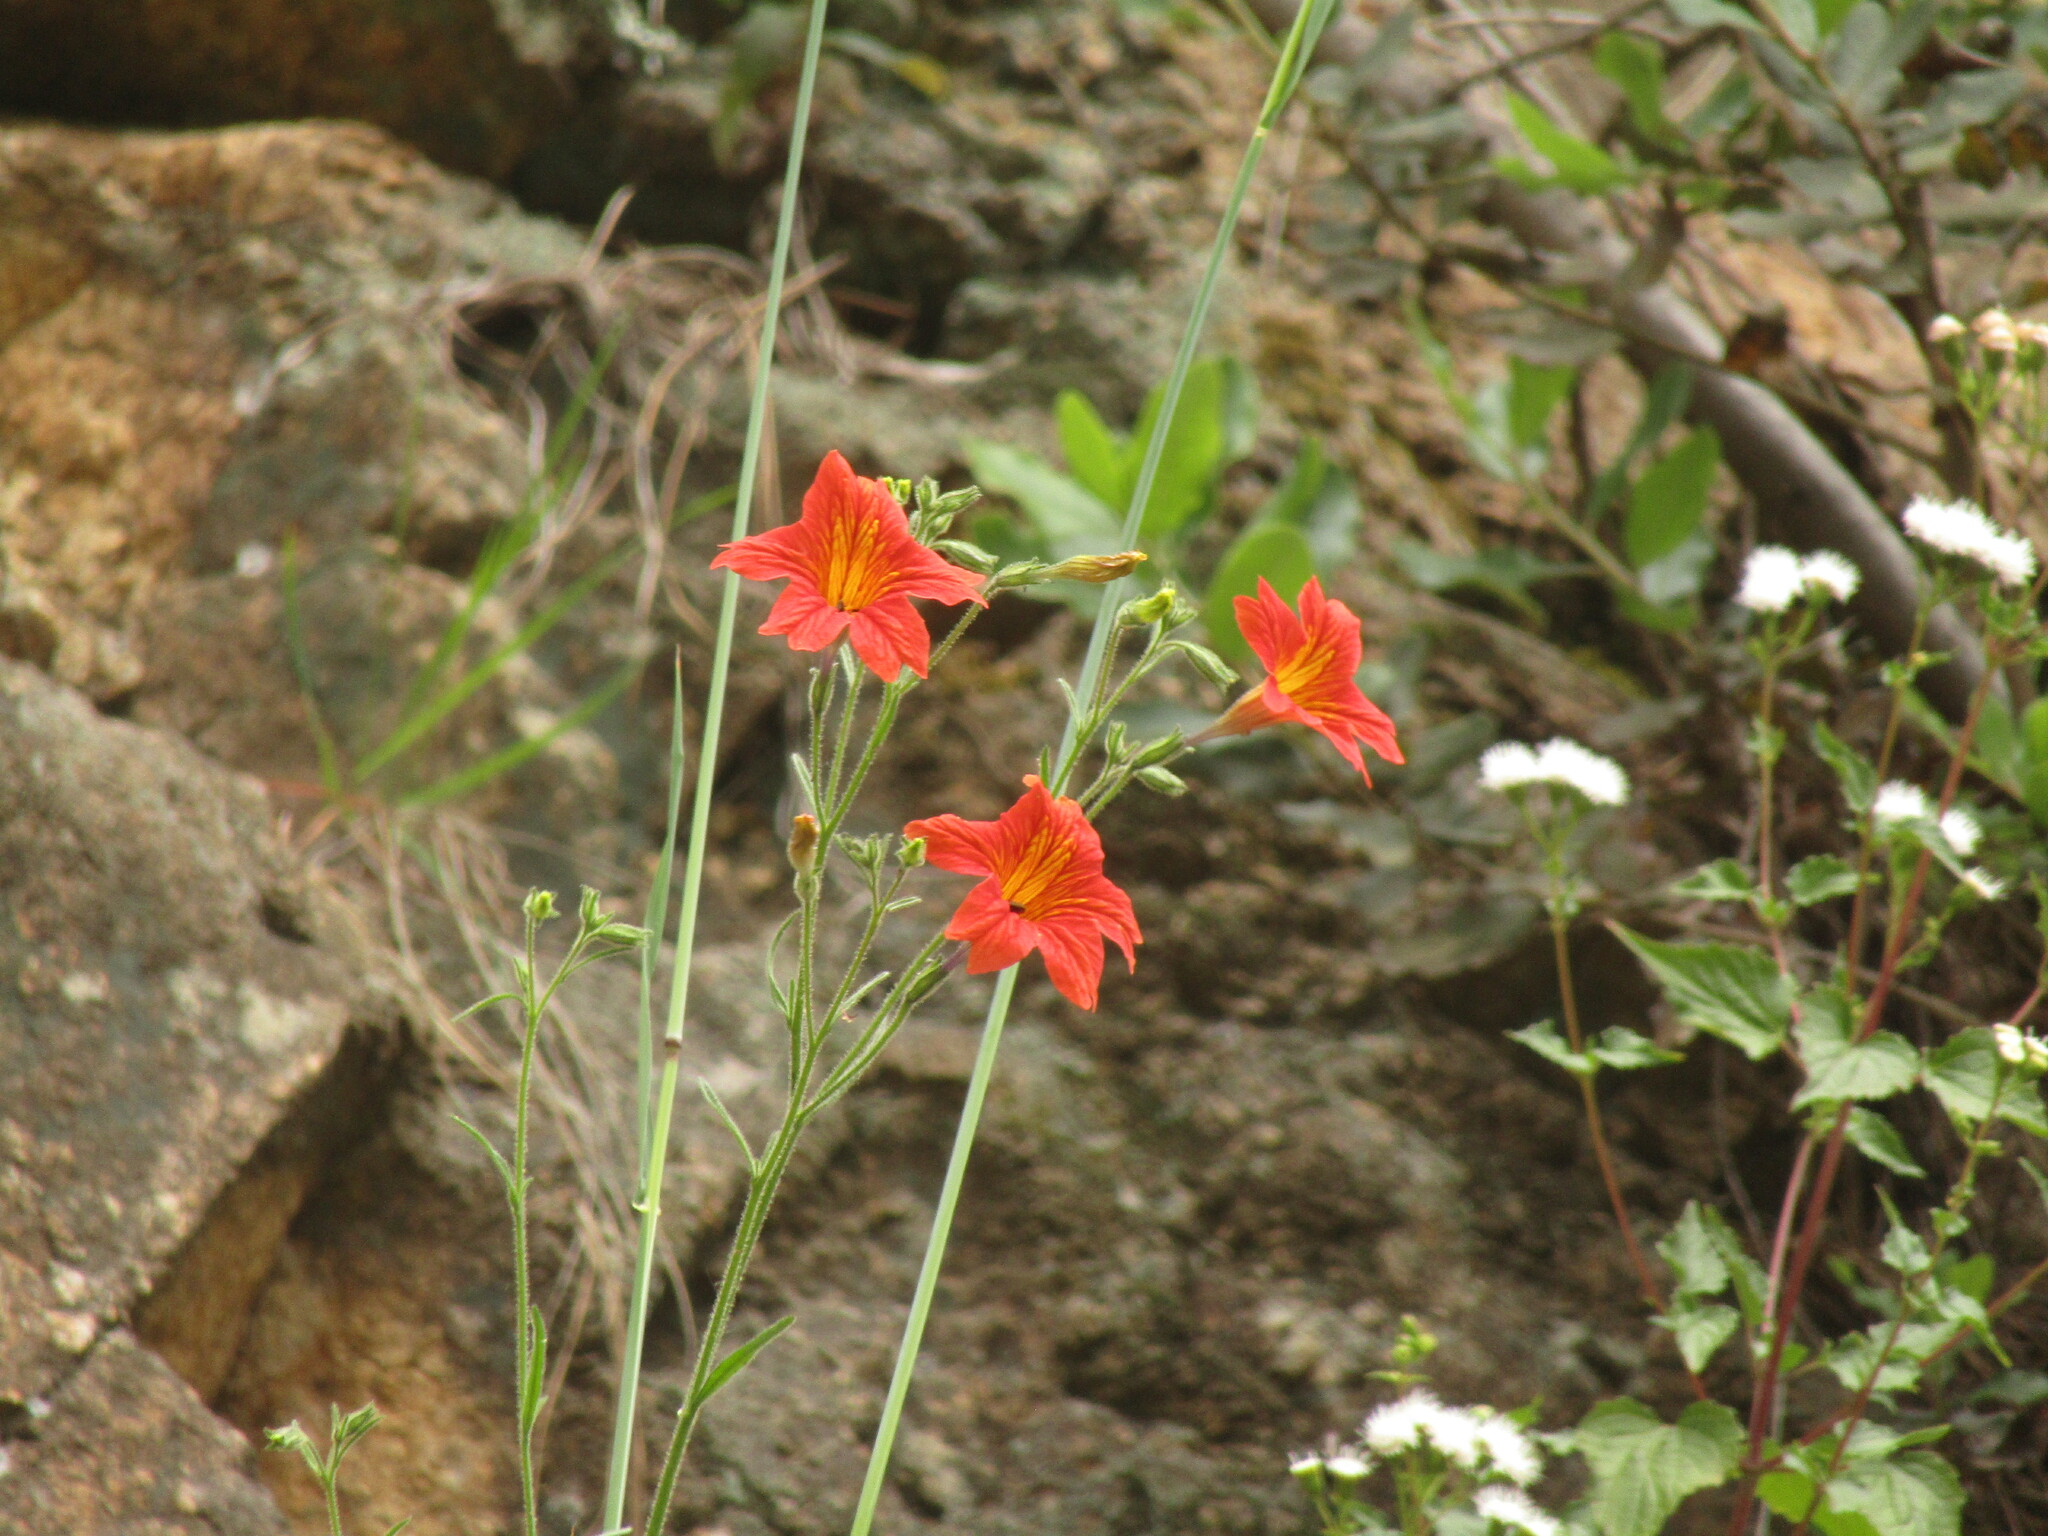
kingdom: Plantae
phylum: Tracheophyta
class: Magnoliopsida
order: Solanales
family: Solanaceae
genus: Salpiglossis
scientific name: Salpiglossis sinuata
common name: Painted-tongue
